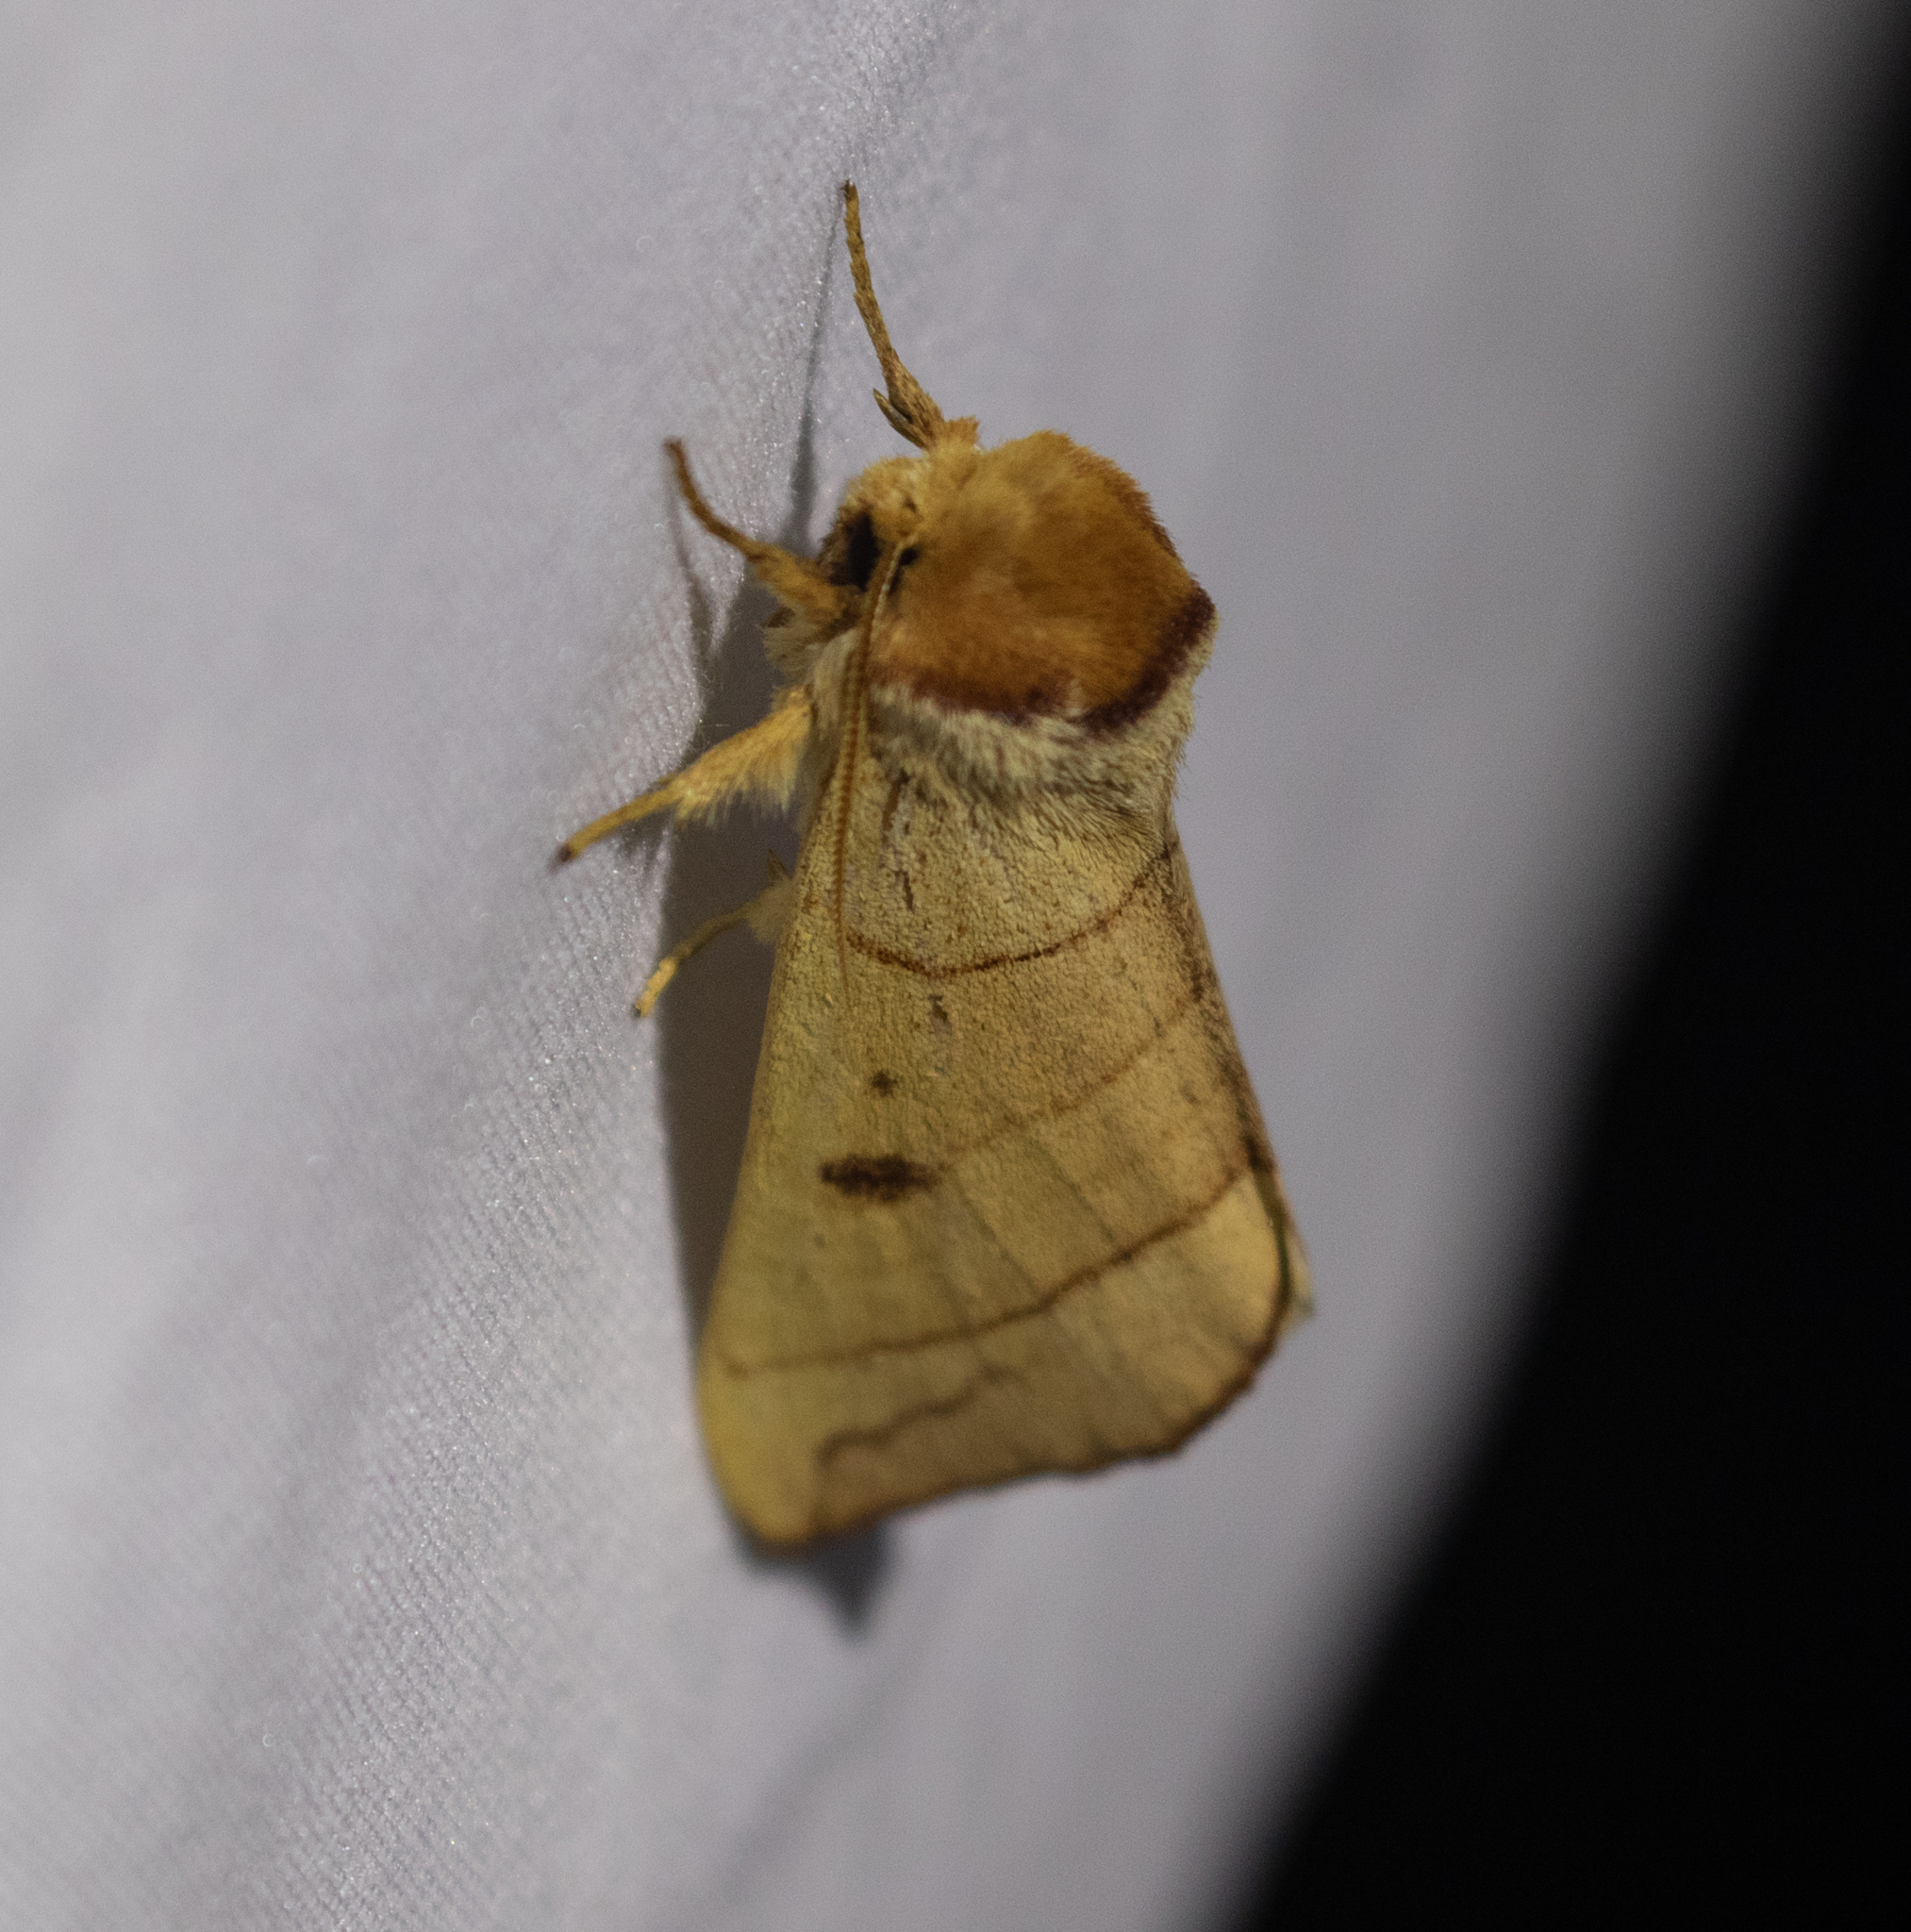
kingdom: Animalia
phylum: Arthropoda
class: Insecta
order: Lepidoptera
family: Notodontidae
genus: Datana
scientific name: Datana perspicua
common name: Spotted datana
